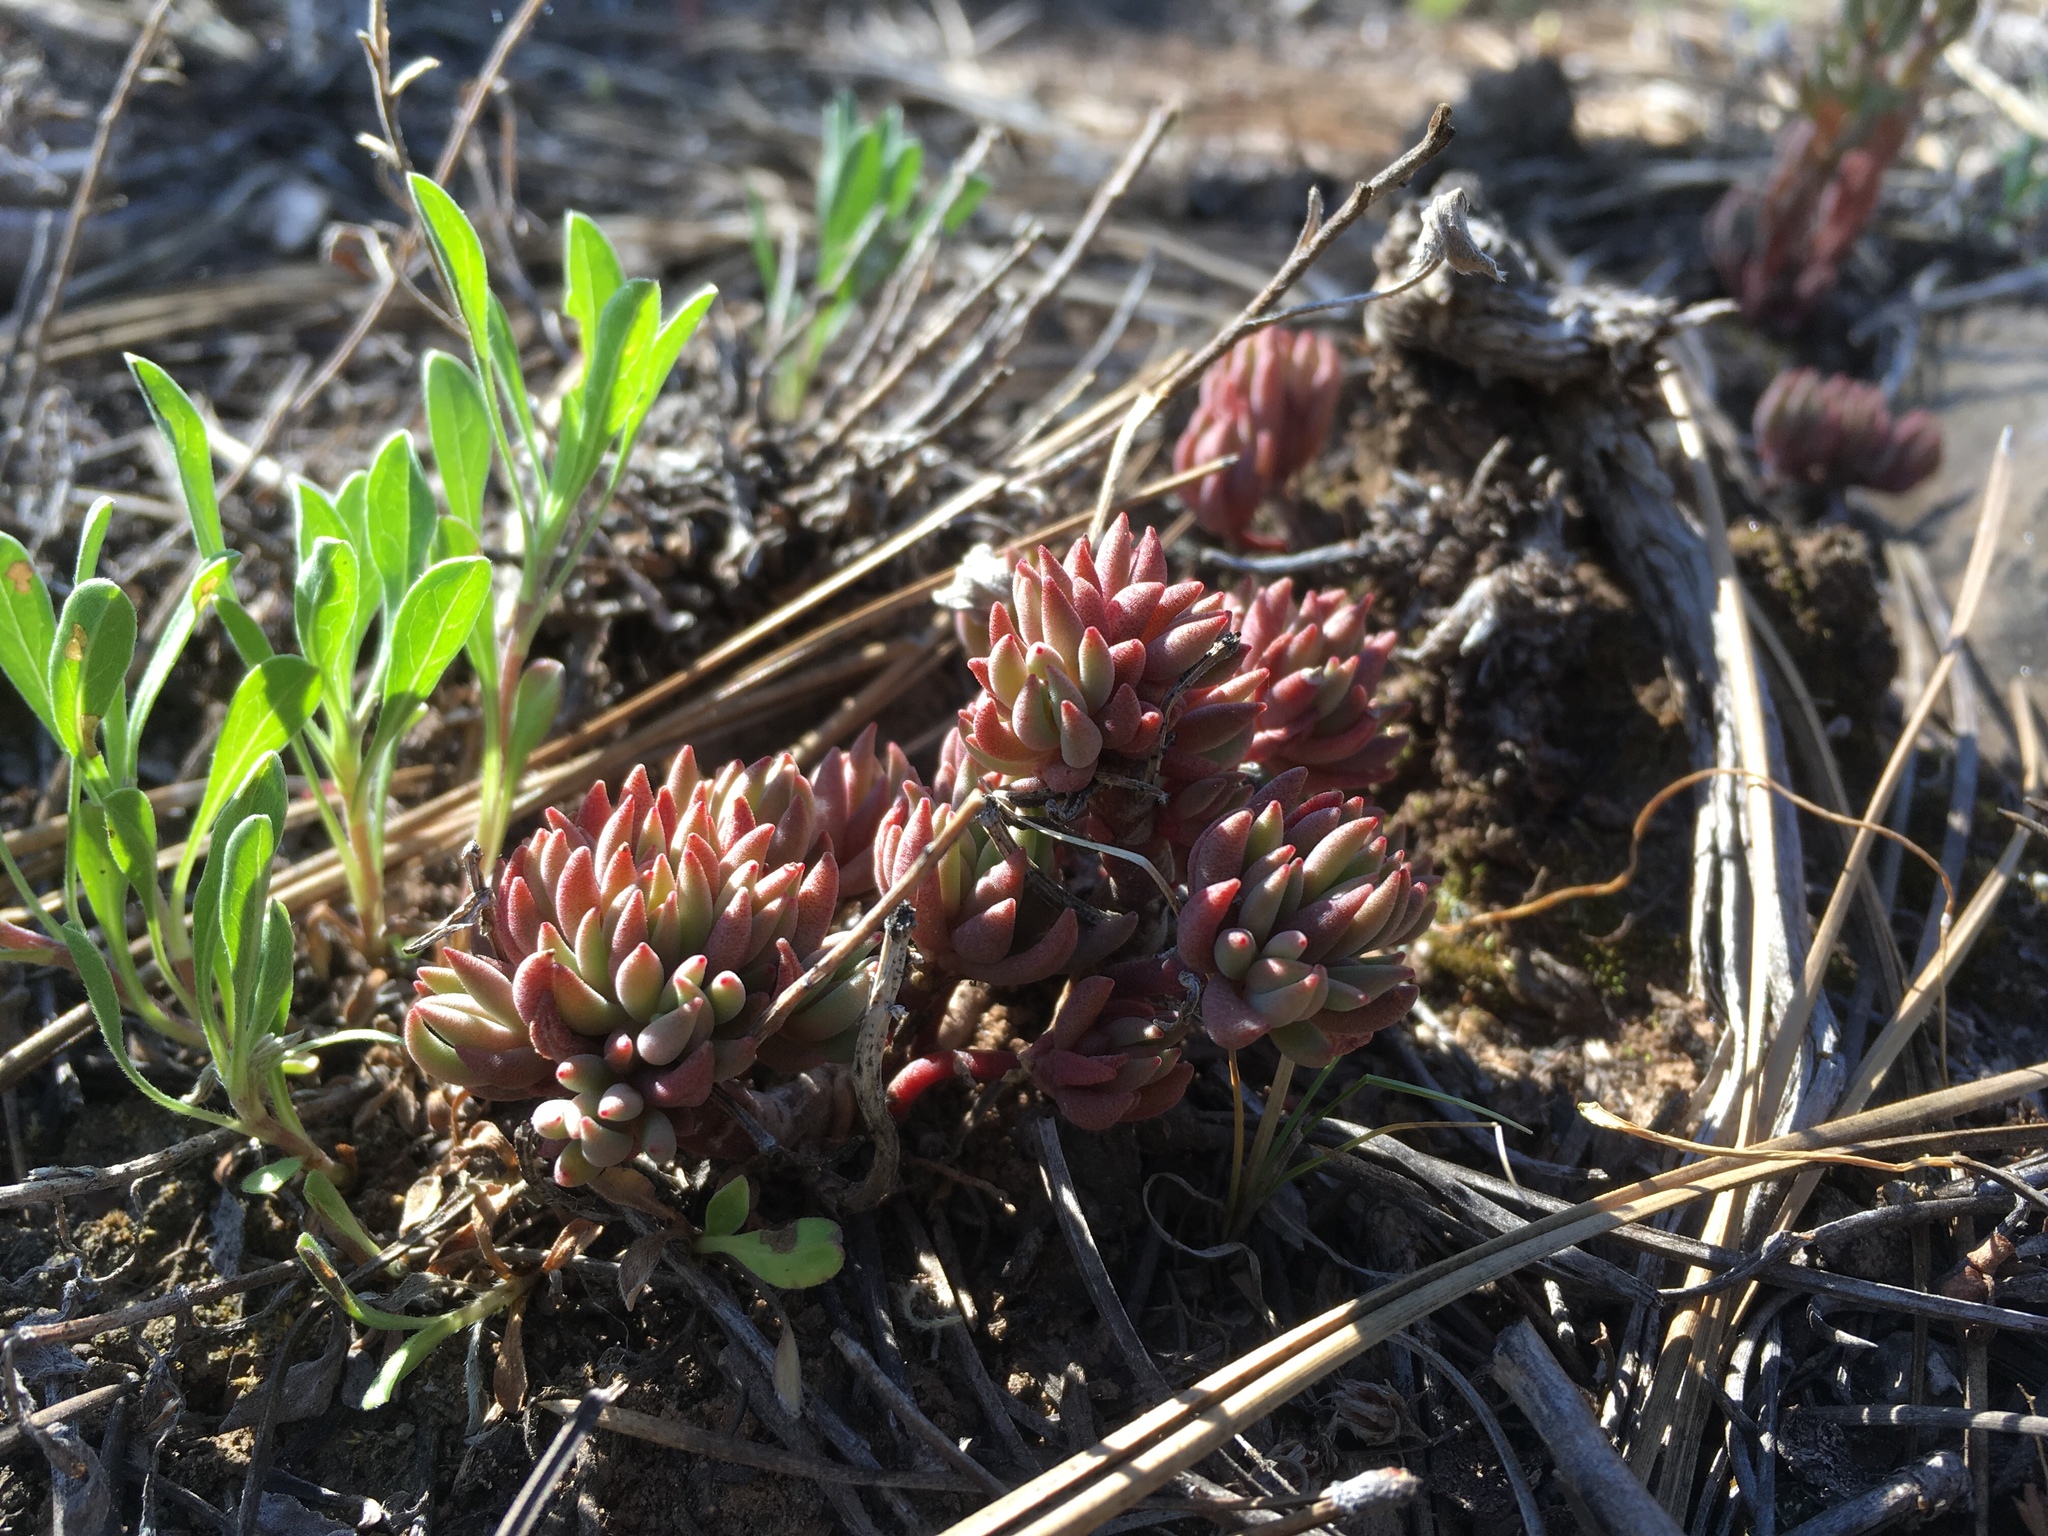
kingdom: Plantae
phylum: Tracheophyta
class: Magnoliopsida
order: Saxifragales
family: Crassulaceae
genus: Sedum
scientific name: Sedum lanceolatum
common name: Common stonecrop
